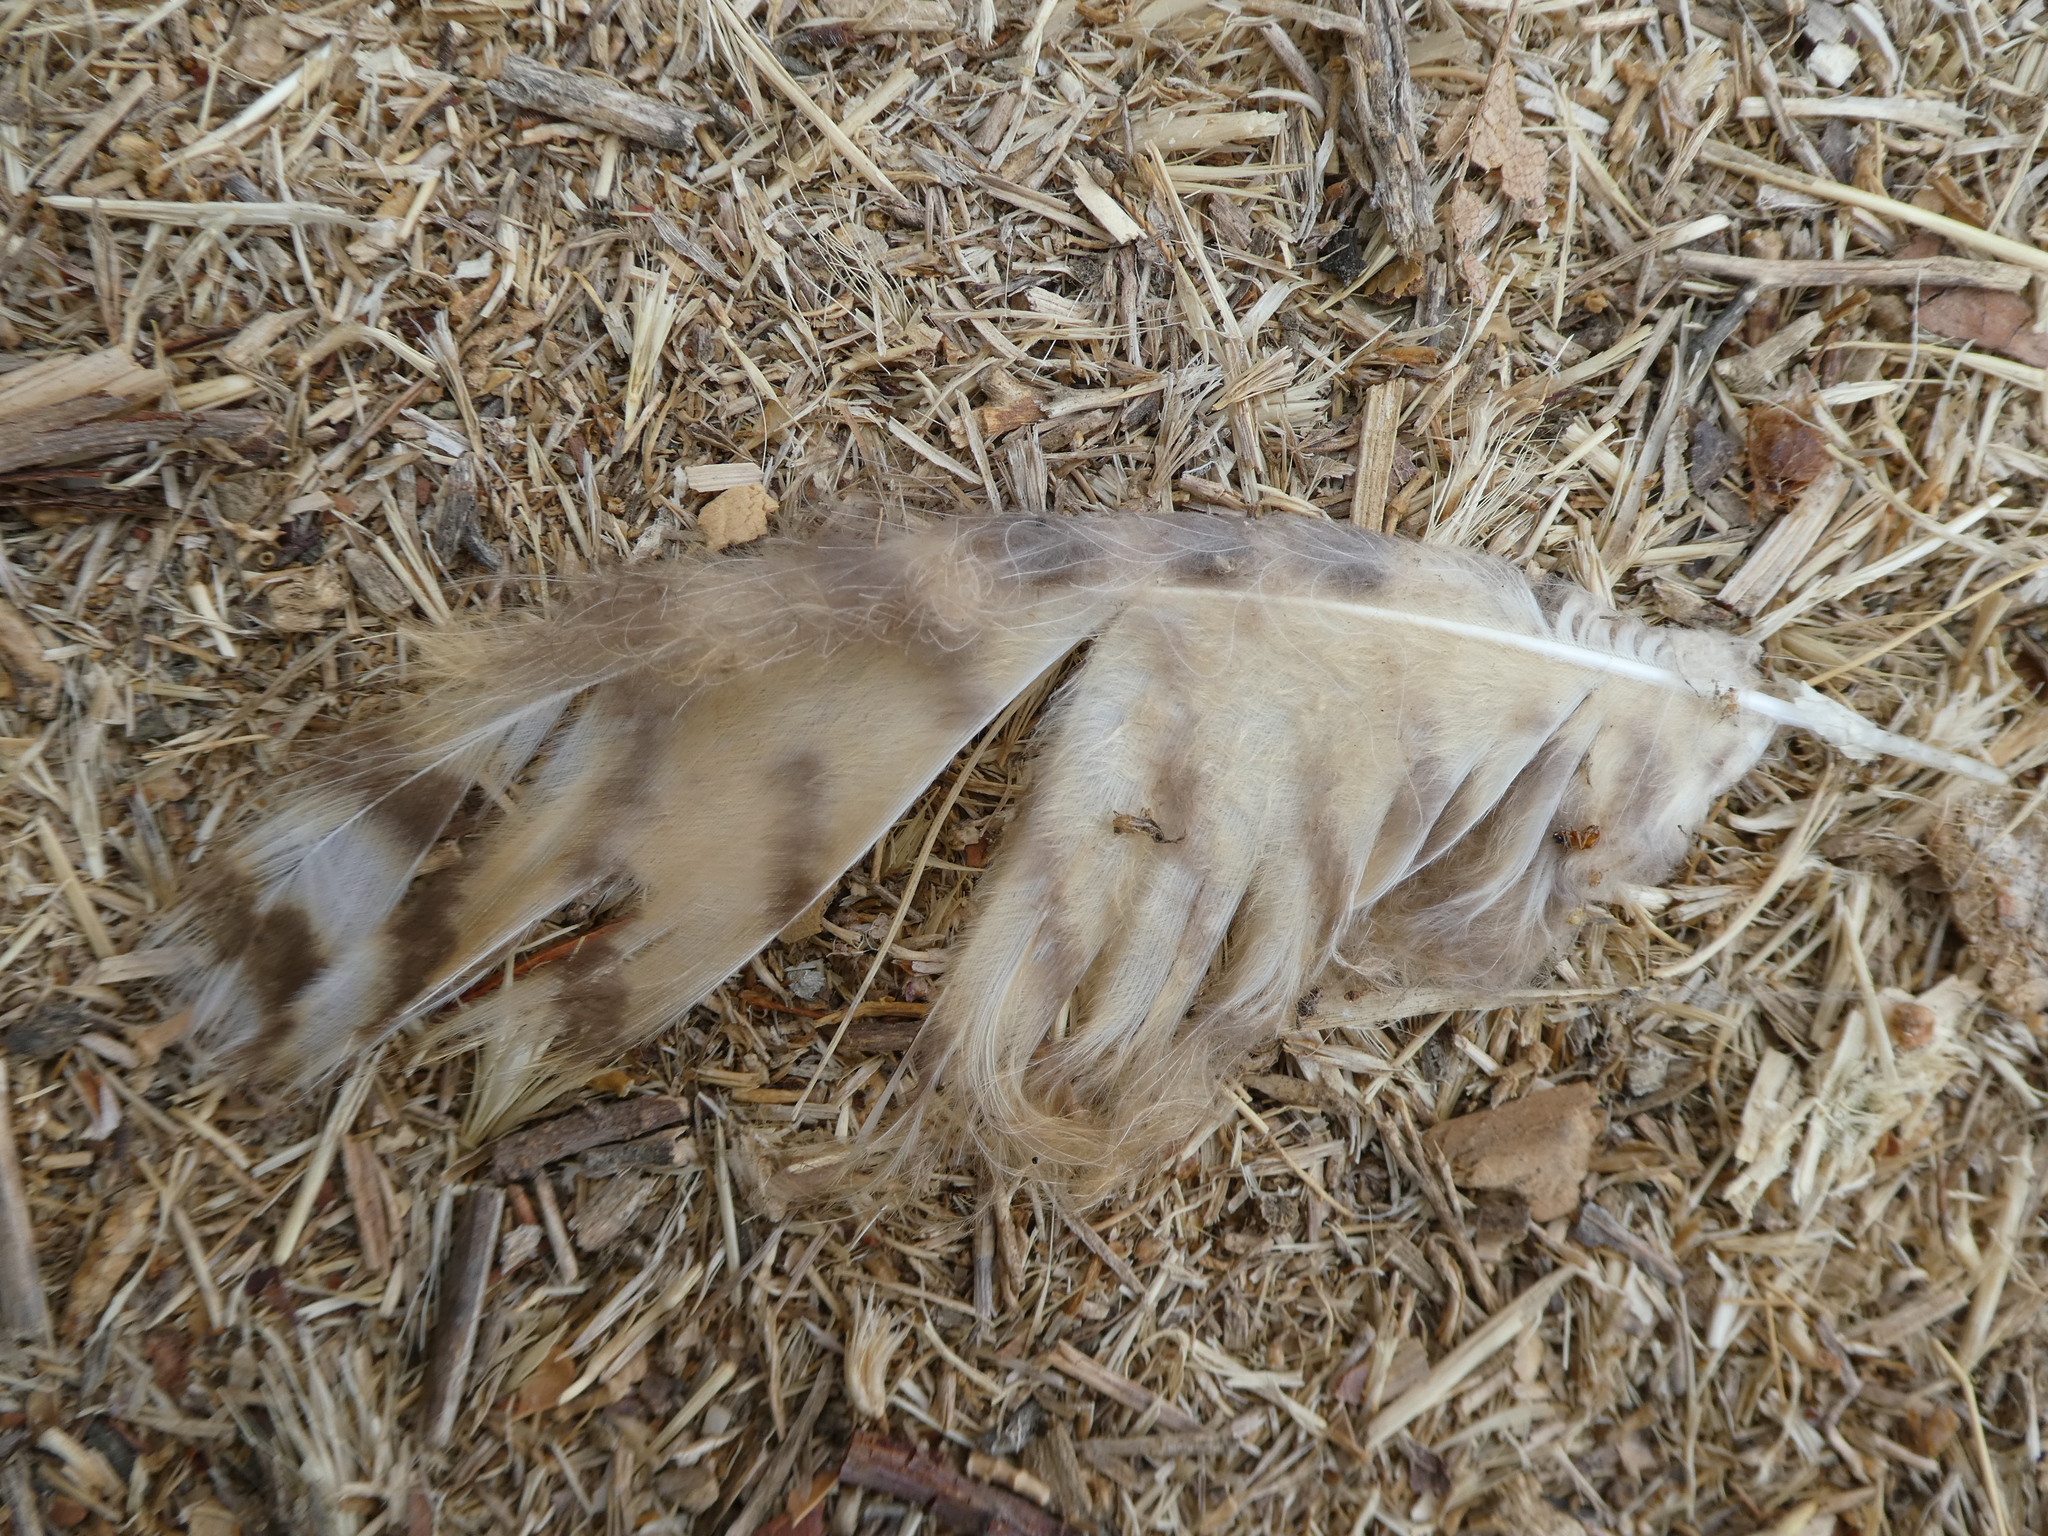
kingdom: Animalia
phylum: Chordata
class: Aves
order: Strigiformes
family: Strigidae
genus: Bubo
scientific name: Bubo virginianus
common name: Great horned owl
